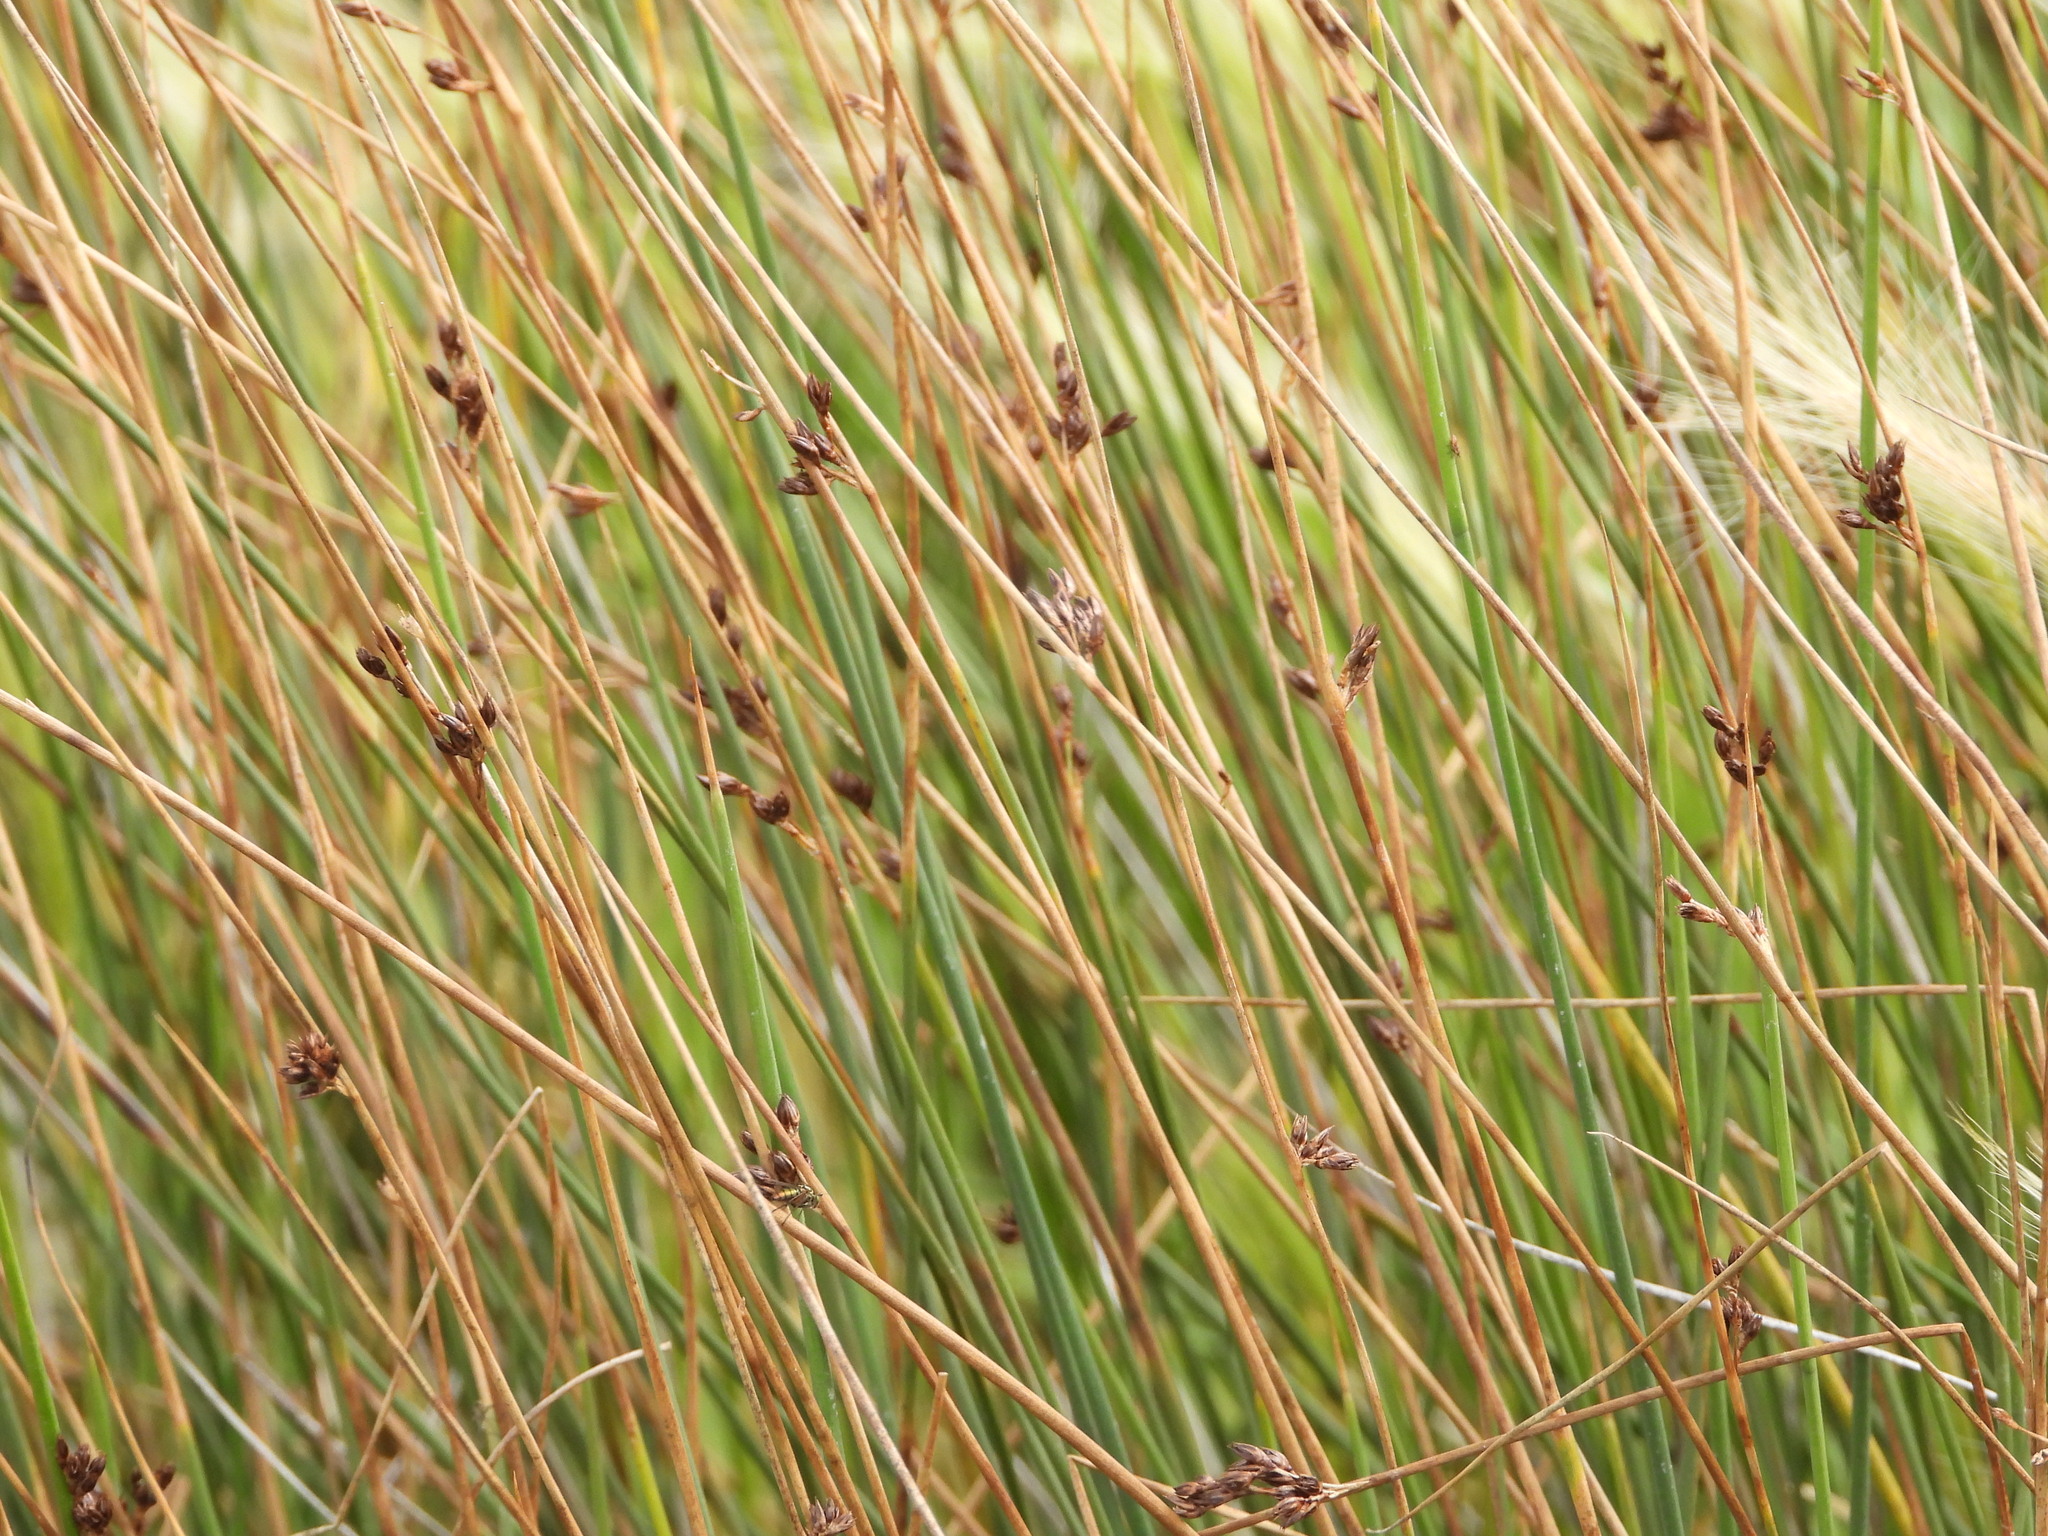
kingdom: Plantae
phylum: Tracheophyta
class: Liliopsida
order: Poales
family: Juncaceae
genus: Juncus
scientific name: Juncus balticus
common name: Baltic rush
